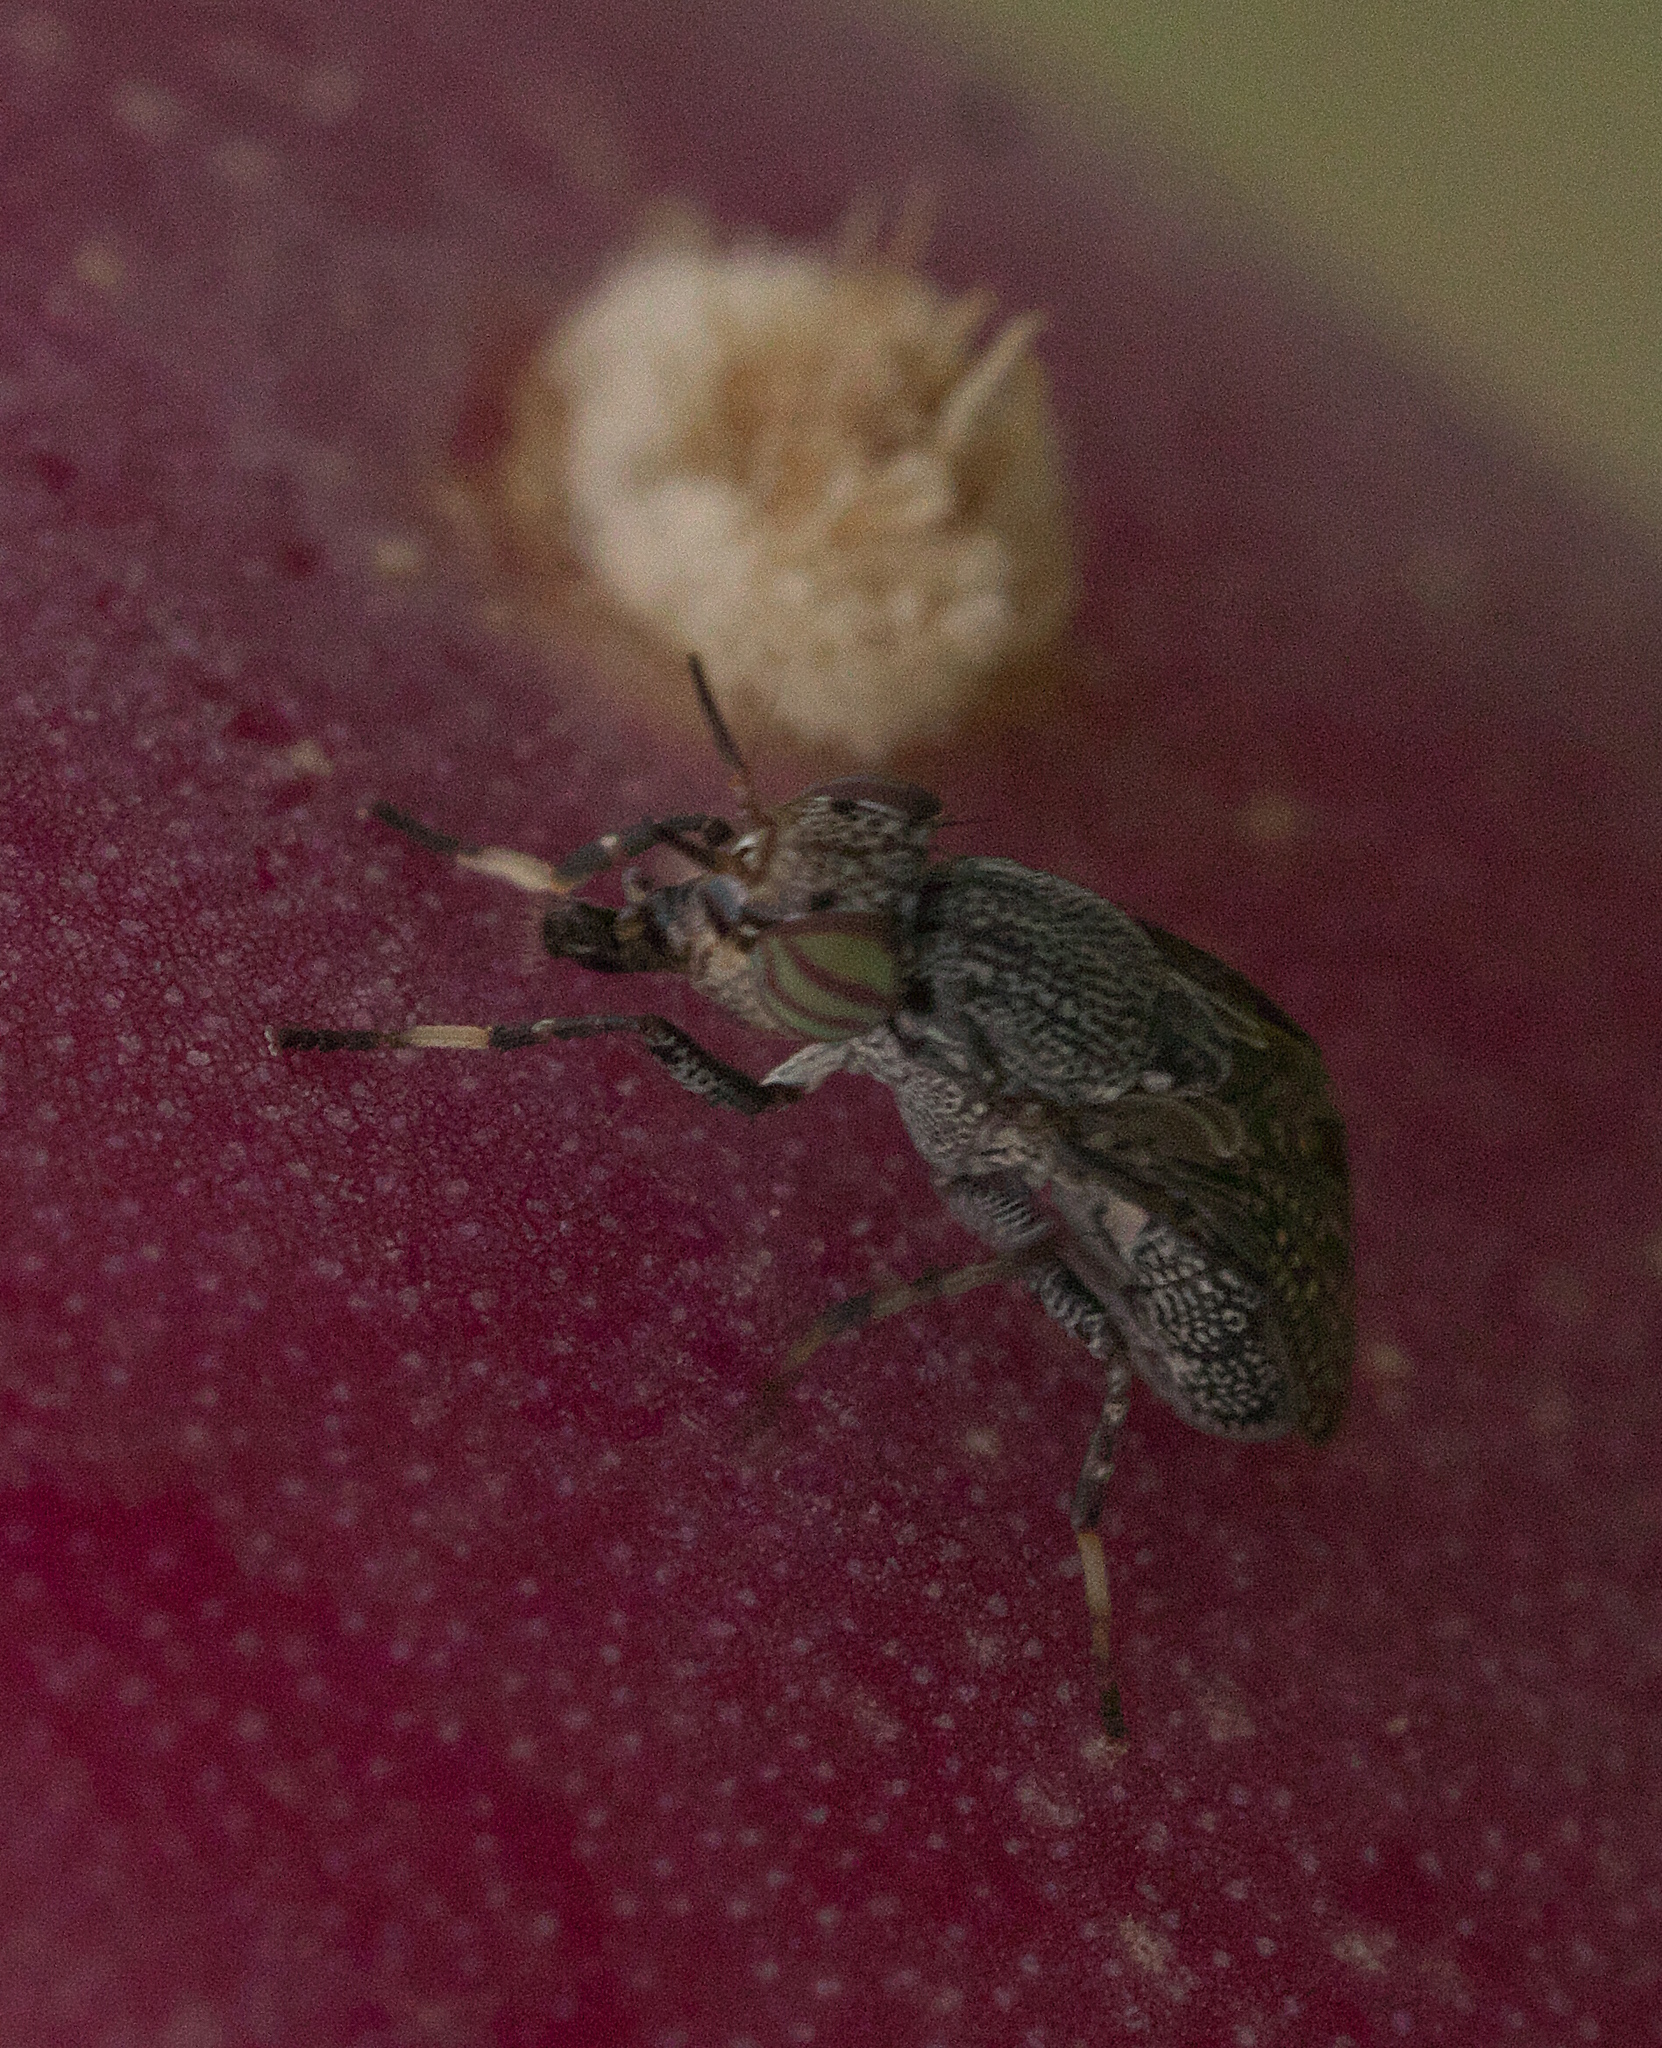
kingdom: Animalia
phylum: Arthropoda
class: Insecta
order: Diptera
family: Ulidiidae
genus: Stictomyia
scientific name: Stictomyia longicornis
